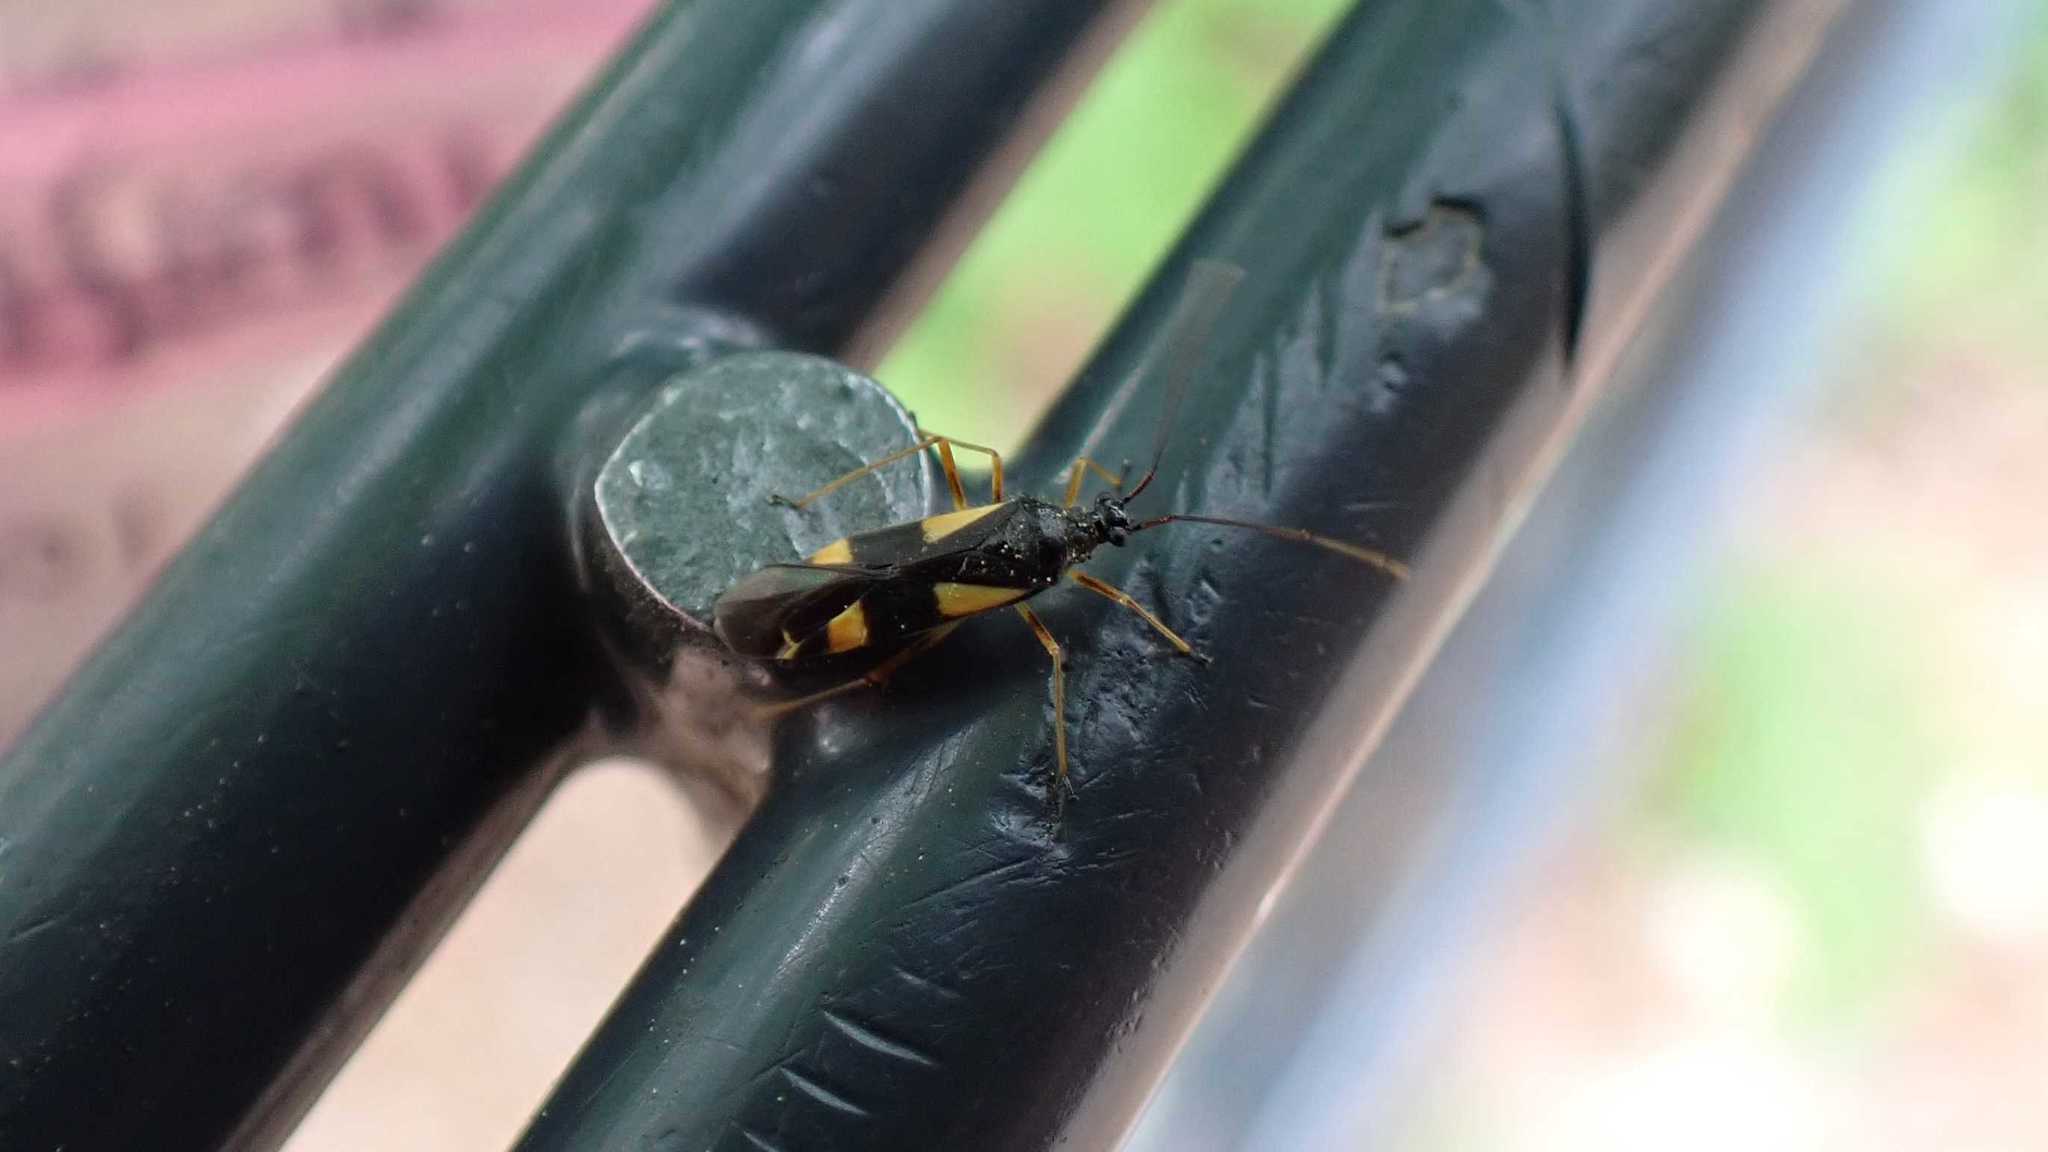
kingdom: Animalia
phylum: Arthropoda
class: Insecta
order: Hemiptera
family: Miridae
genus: Dryophilocoris
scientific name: Dryophilocoris flavoquadrimaculatus
